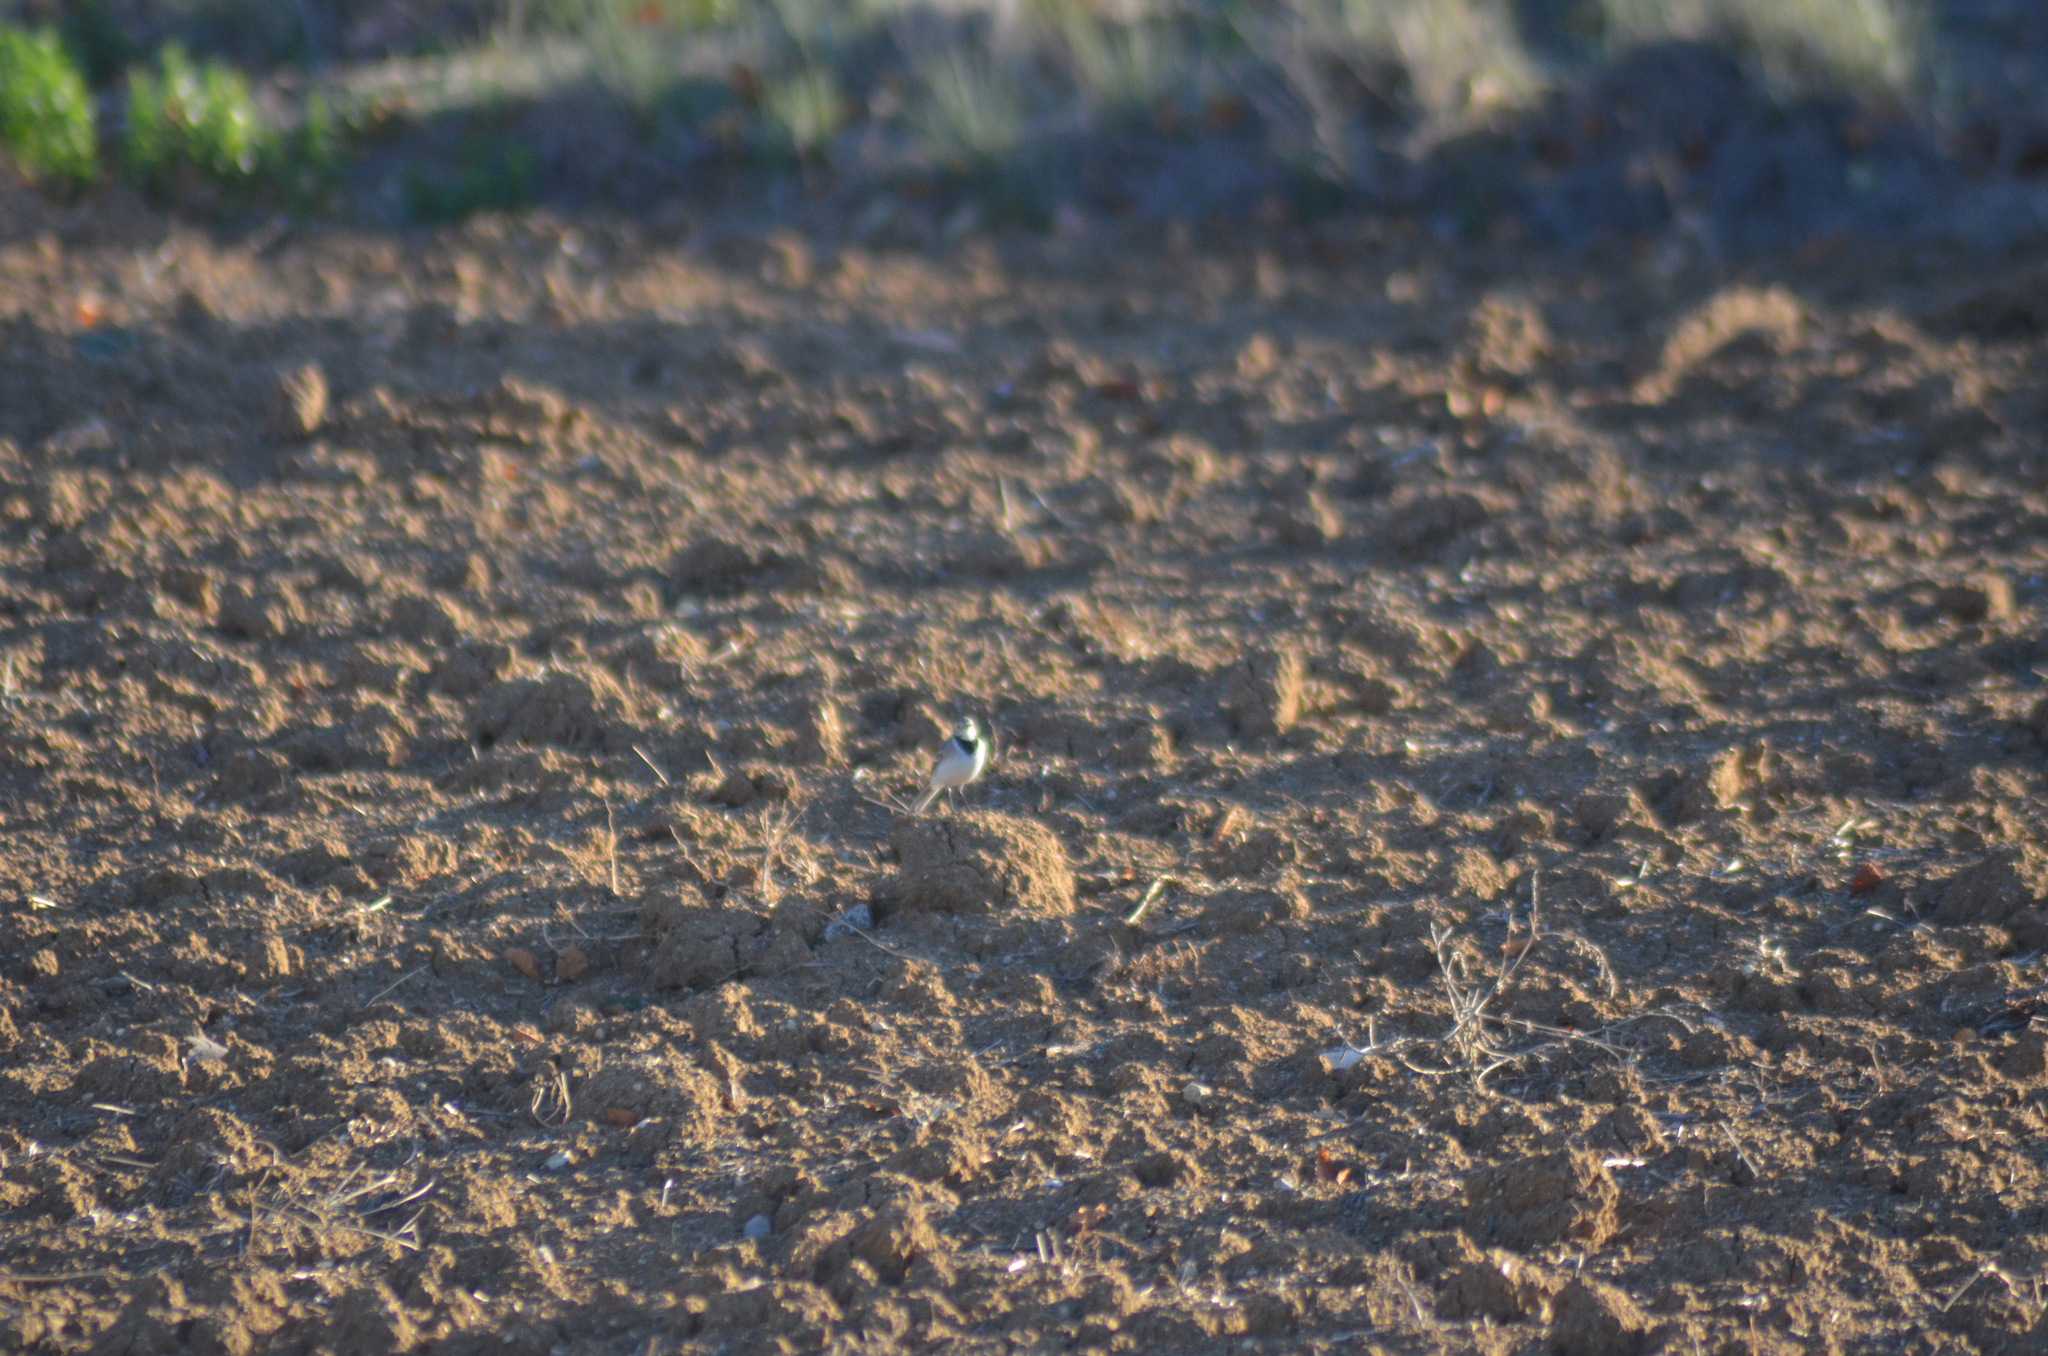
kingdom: Animalia
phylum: Chordata
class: Aves
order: Passeriformes
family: Motacillidae
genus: Motacilla
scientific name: Motacilla alba
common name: White wagtail
